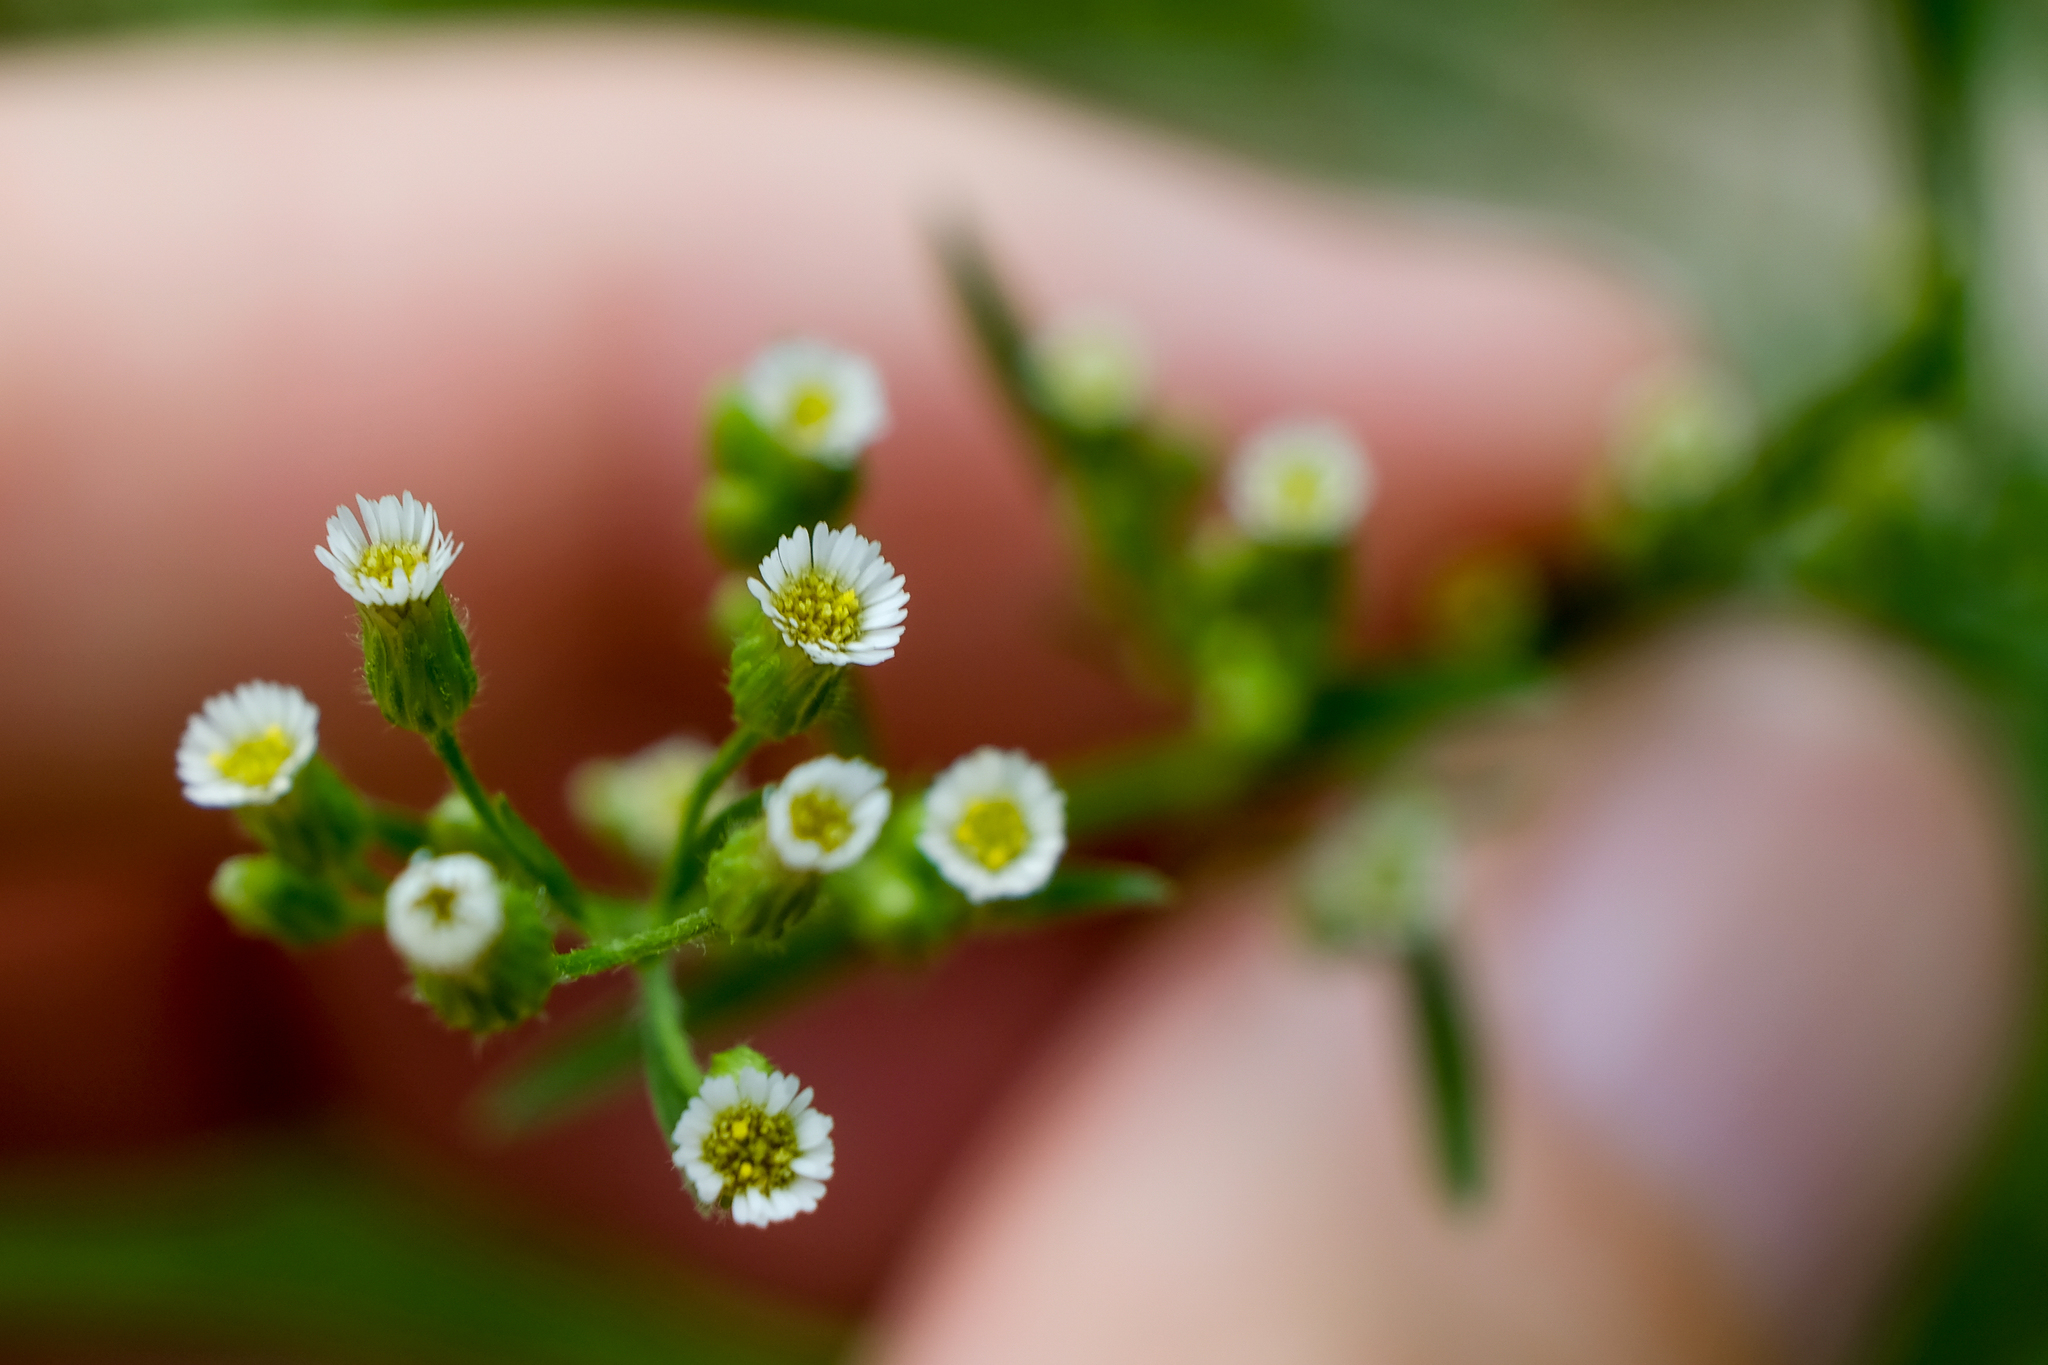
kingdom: Plantae
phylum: Tracheophyta
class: Magnoliopsida
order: Asterales
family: Asteraceae
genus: Erigeron
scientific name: Erigeron canadensis
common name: Canadian fleabane
